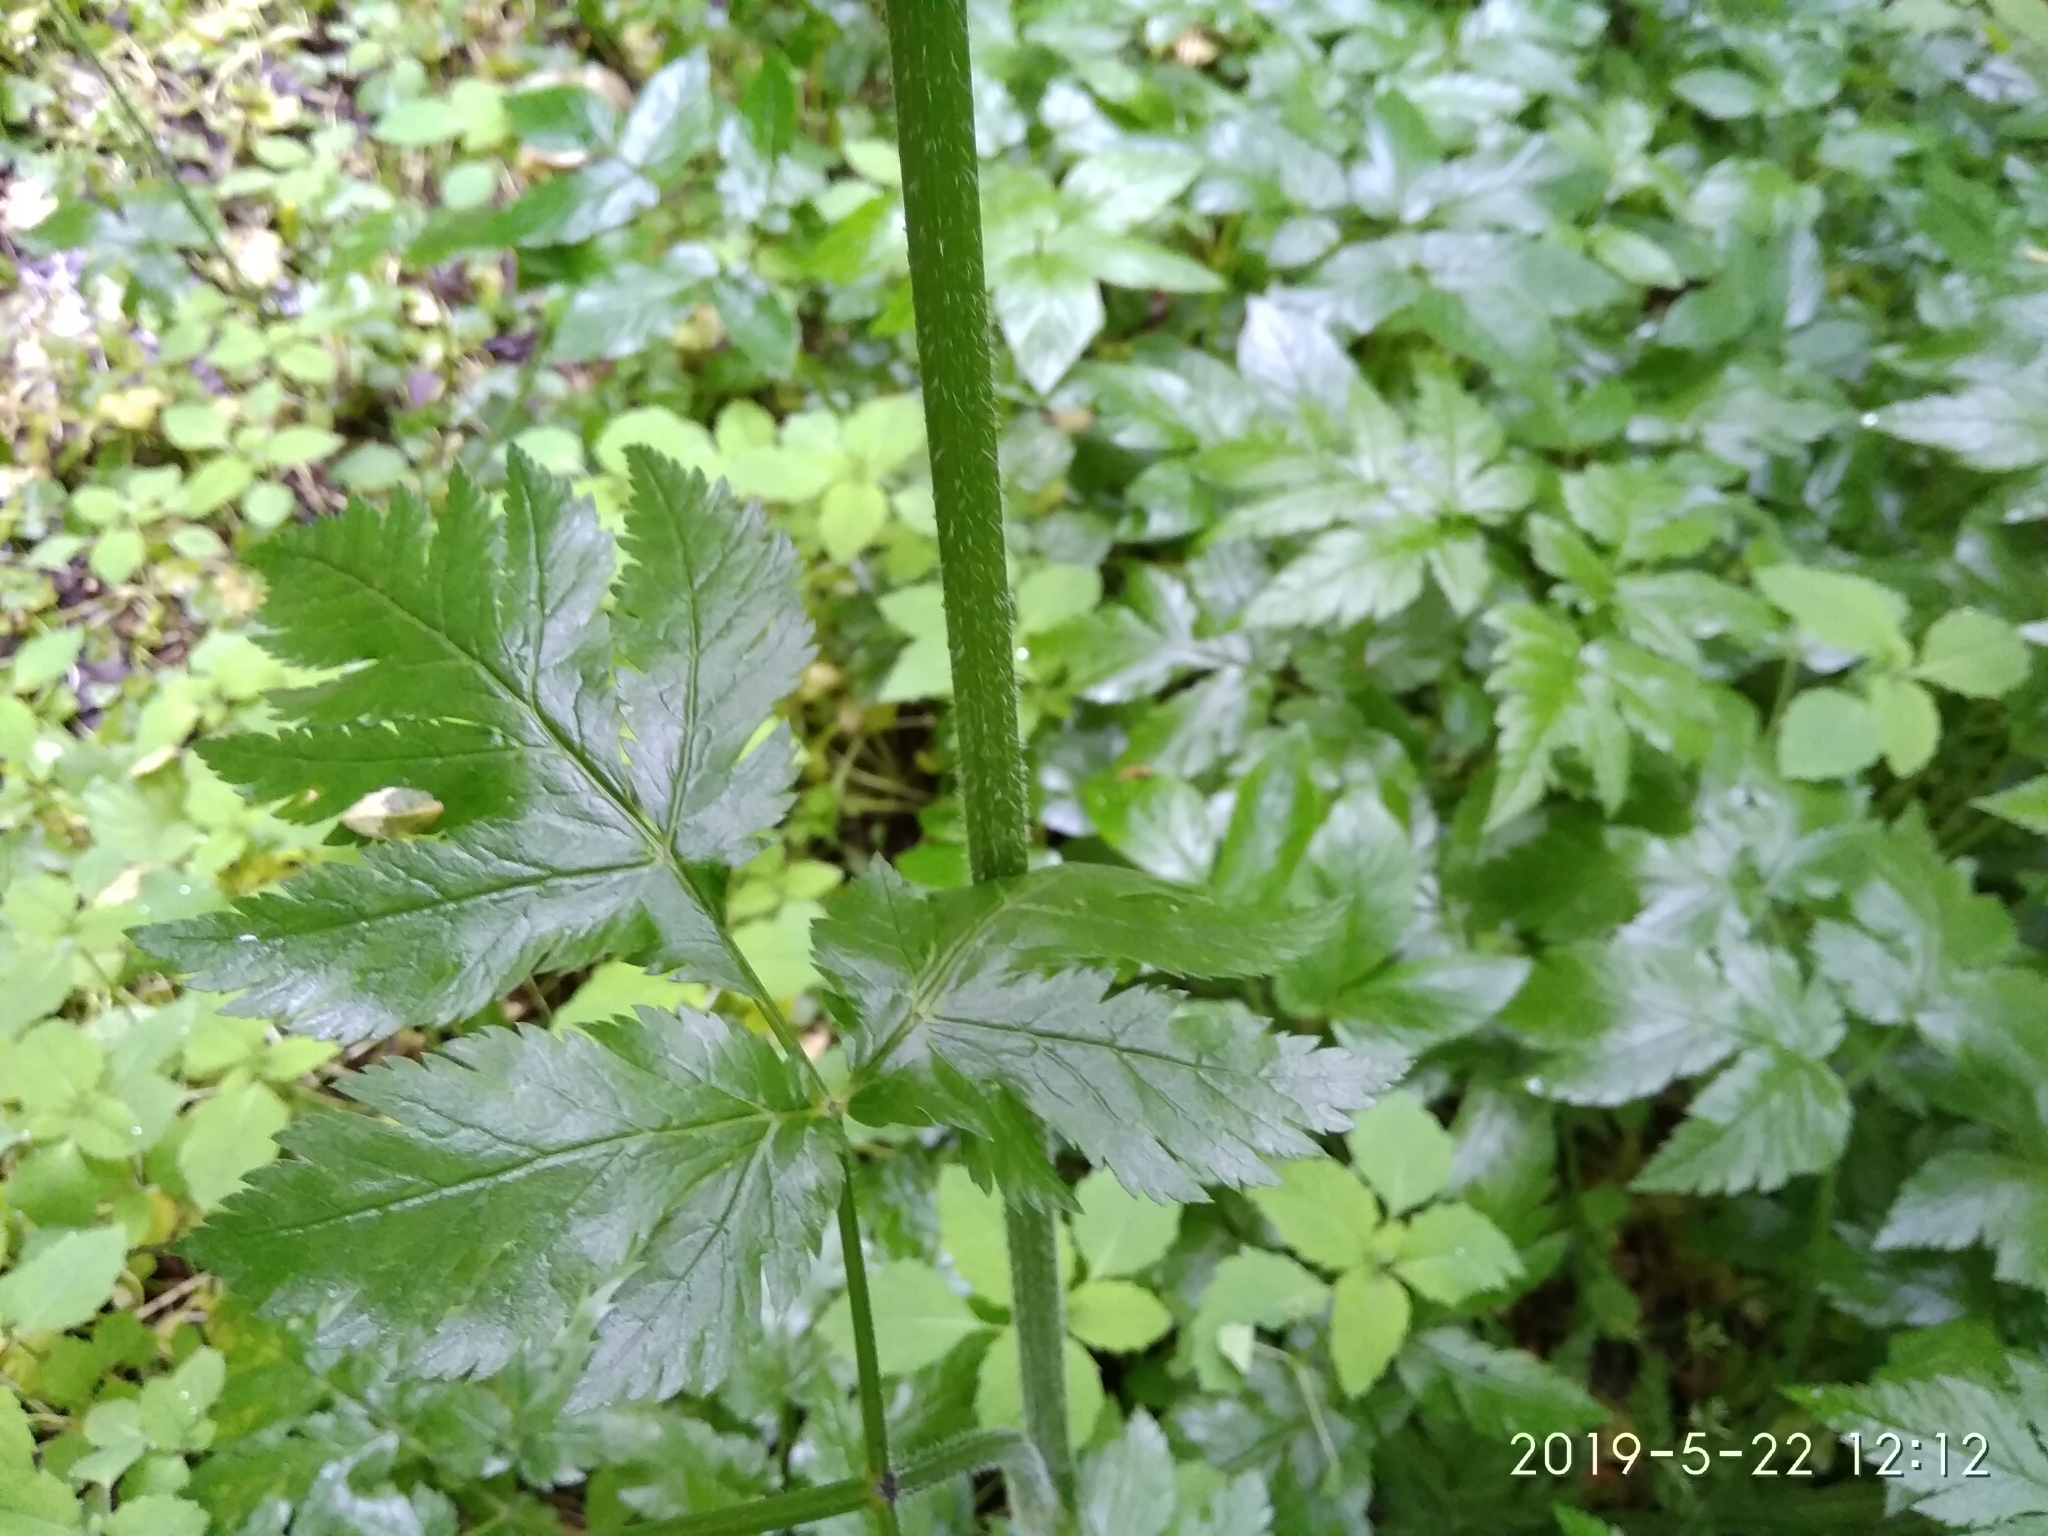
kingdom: Plantae
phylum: Tracheophyta
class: Magnoliopsida
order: Apiales
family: Apiaceae
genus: Chaerophyllum
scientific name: Chaerophyllum hirsutum
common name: Hairy chervil
